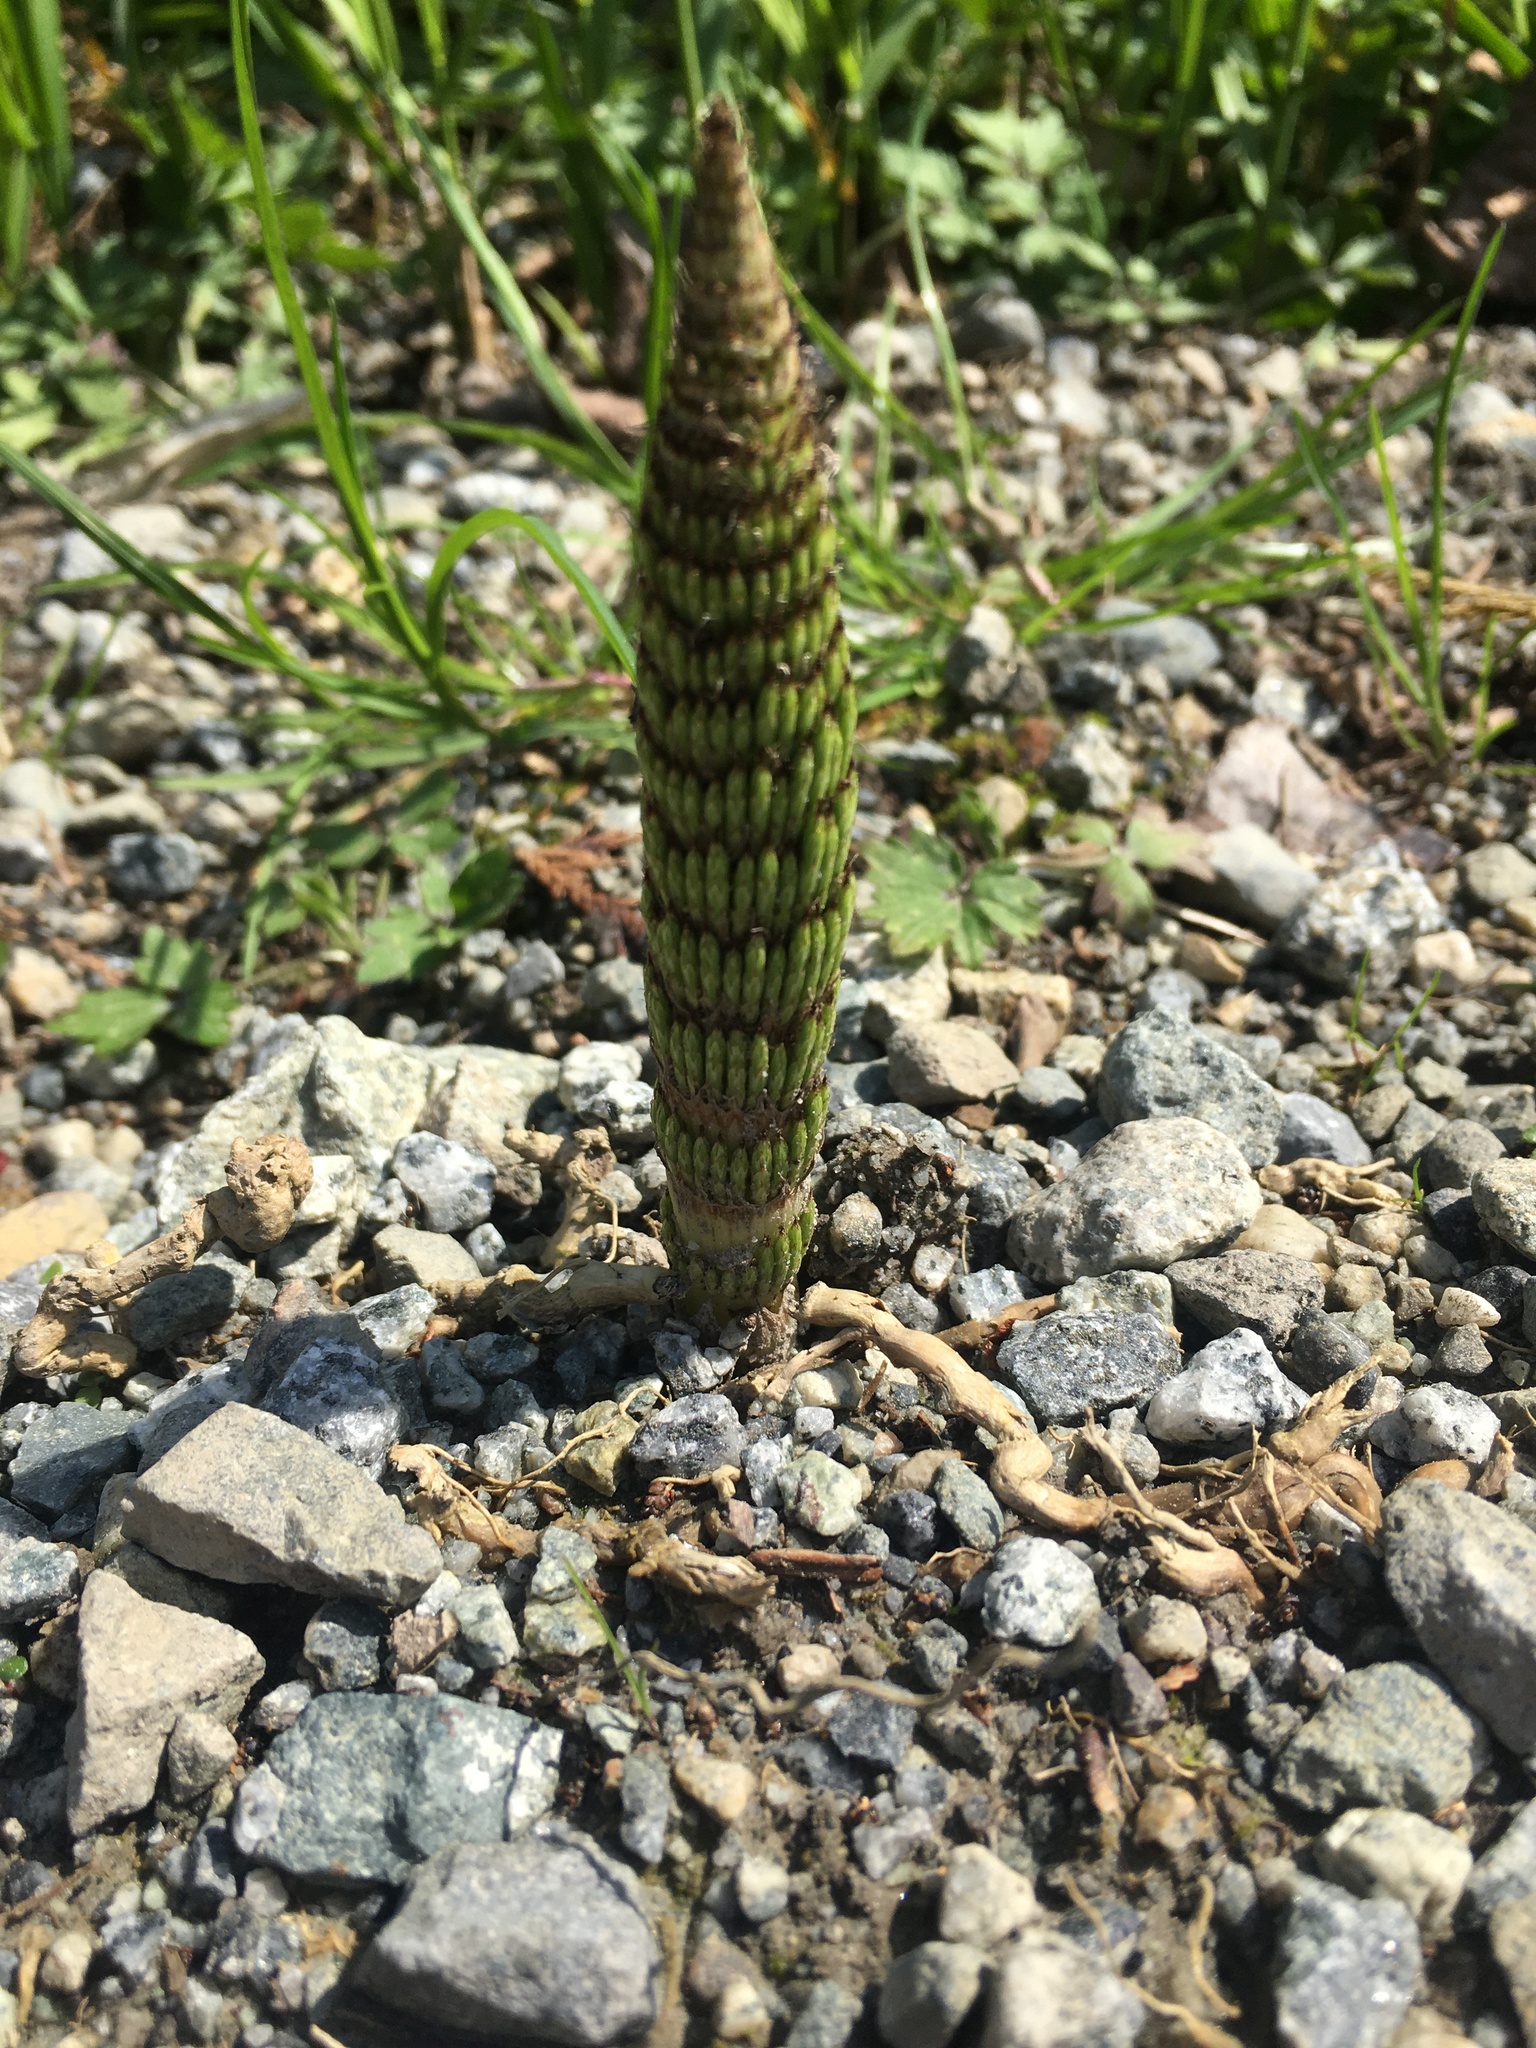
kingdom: Plantae
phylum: Tracheophyta
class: Polypodiopsida
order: Equisetales
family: Equisetaceae
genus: Equisetum
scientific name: Equisetum telmateia
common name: Great horsetail
